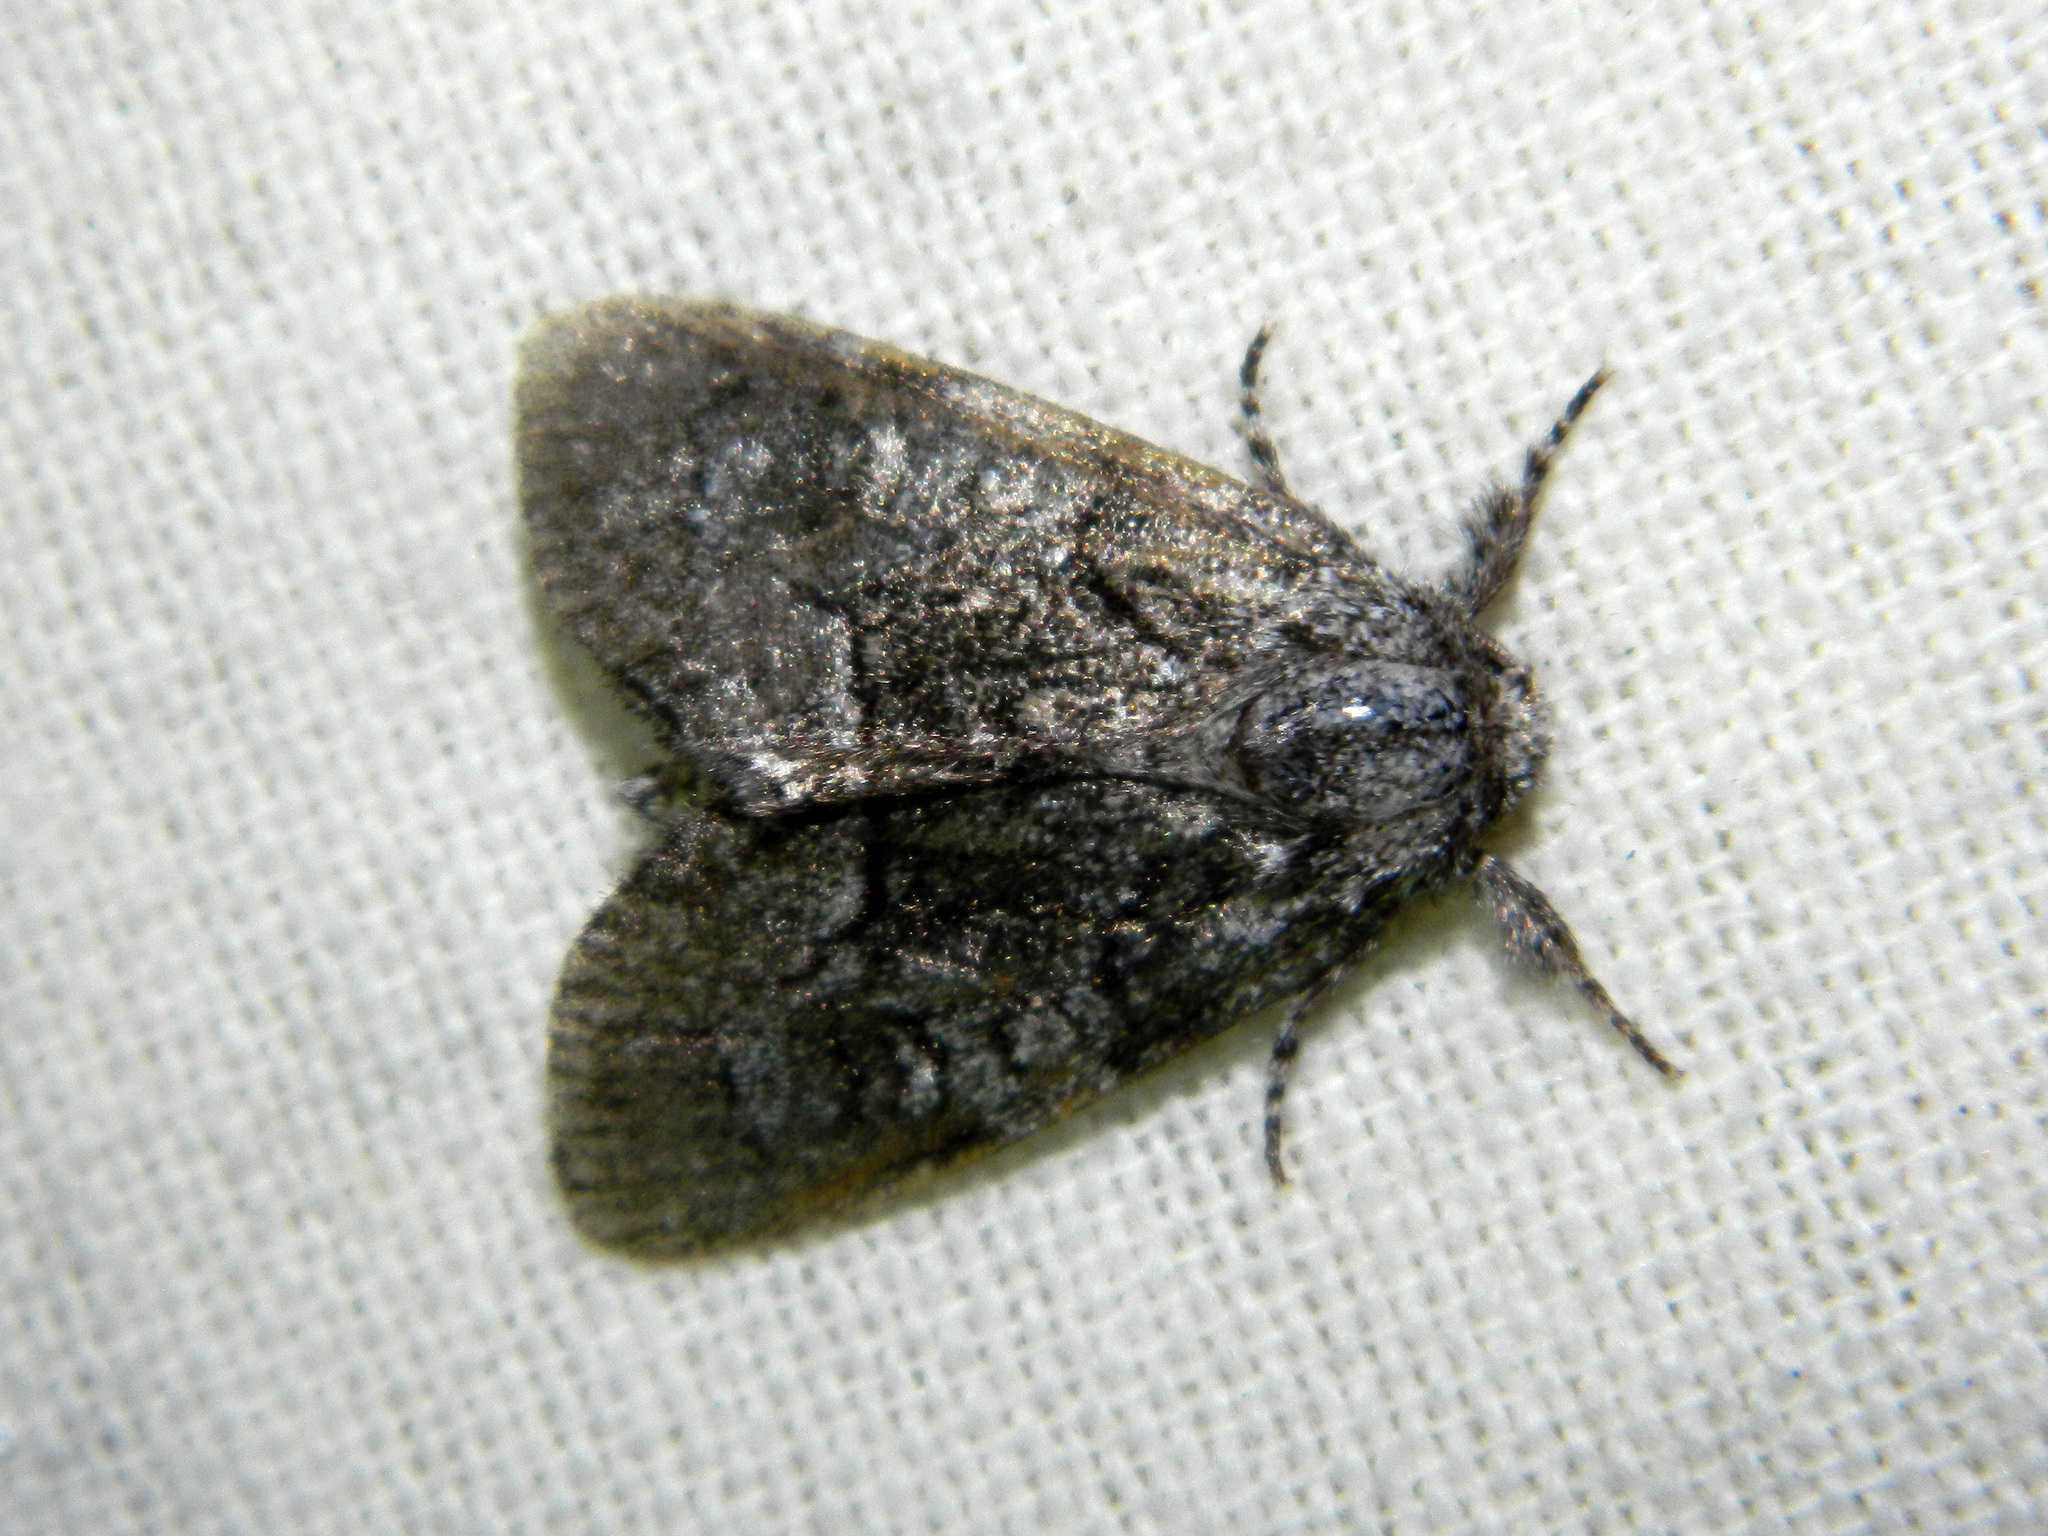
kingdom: Animalia
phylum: Arthropoda
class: Insecta
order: Lepidoptera
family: Noctuidae
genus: Raphia
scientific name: Raphia frater
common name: Brother
